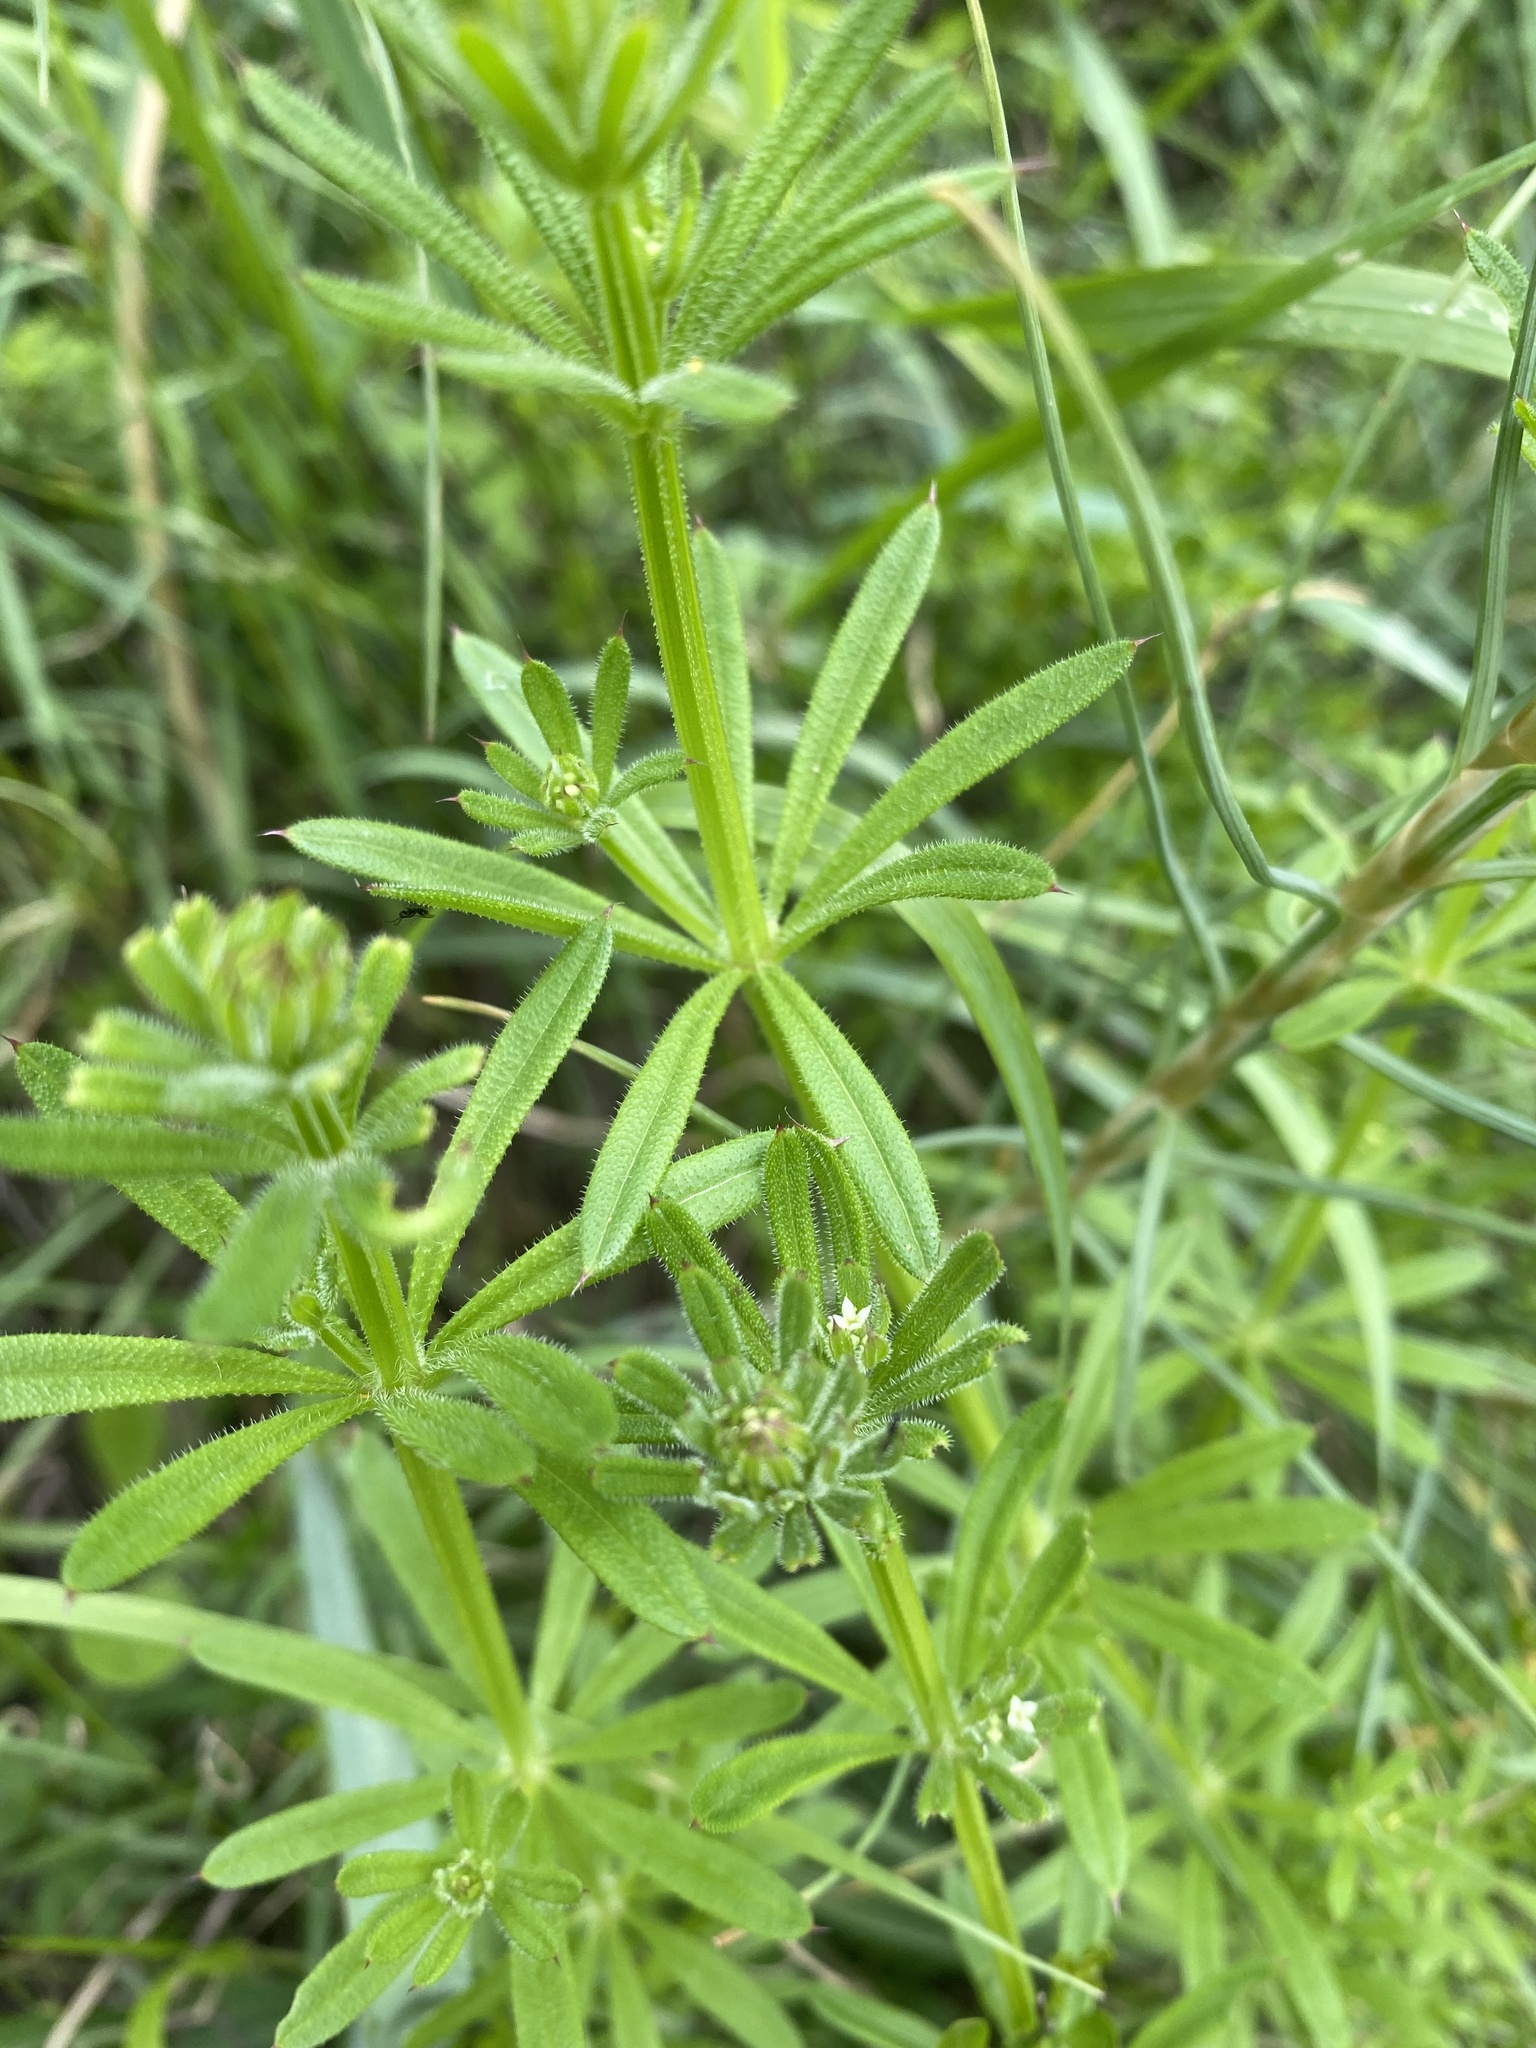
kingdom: Plantae
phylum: Tracheophyta
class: Magnoliopsida
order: Gentianales
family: Rubiaceae
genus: Galium
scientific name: Galium aparine
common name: Cleavers
